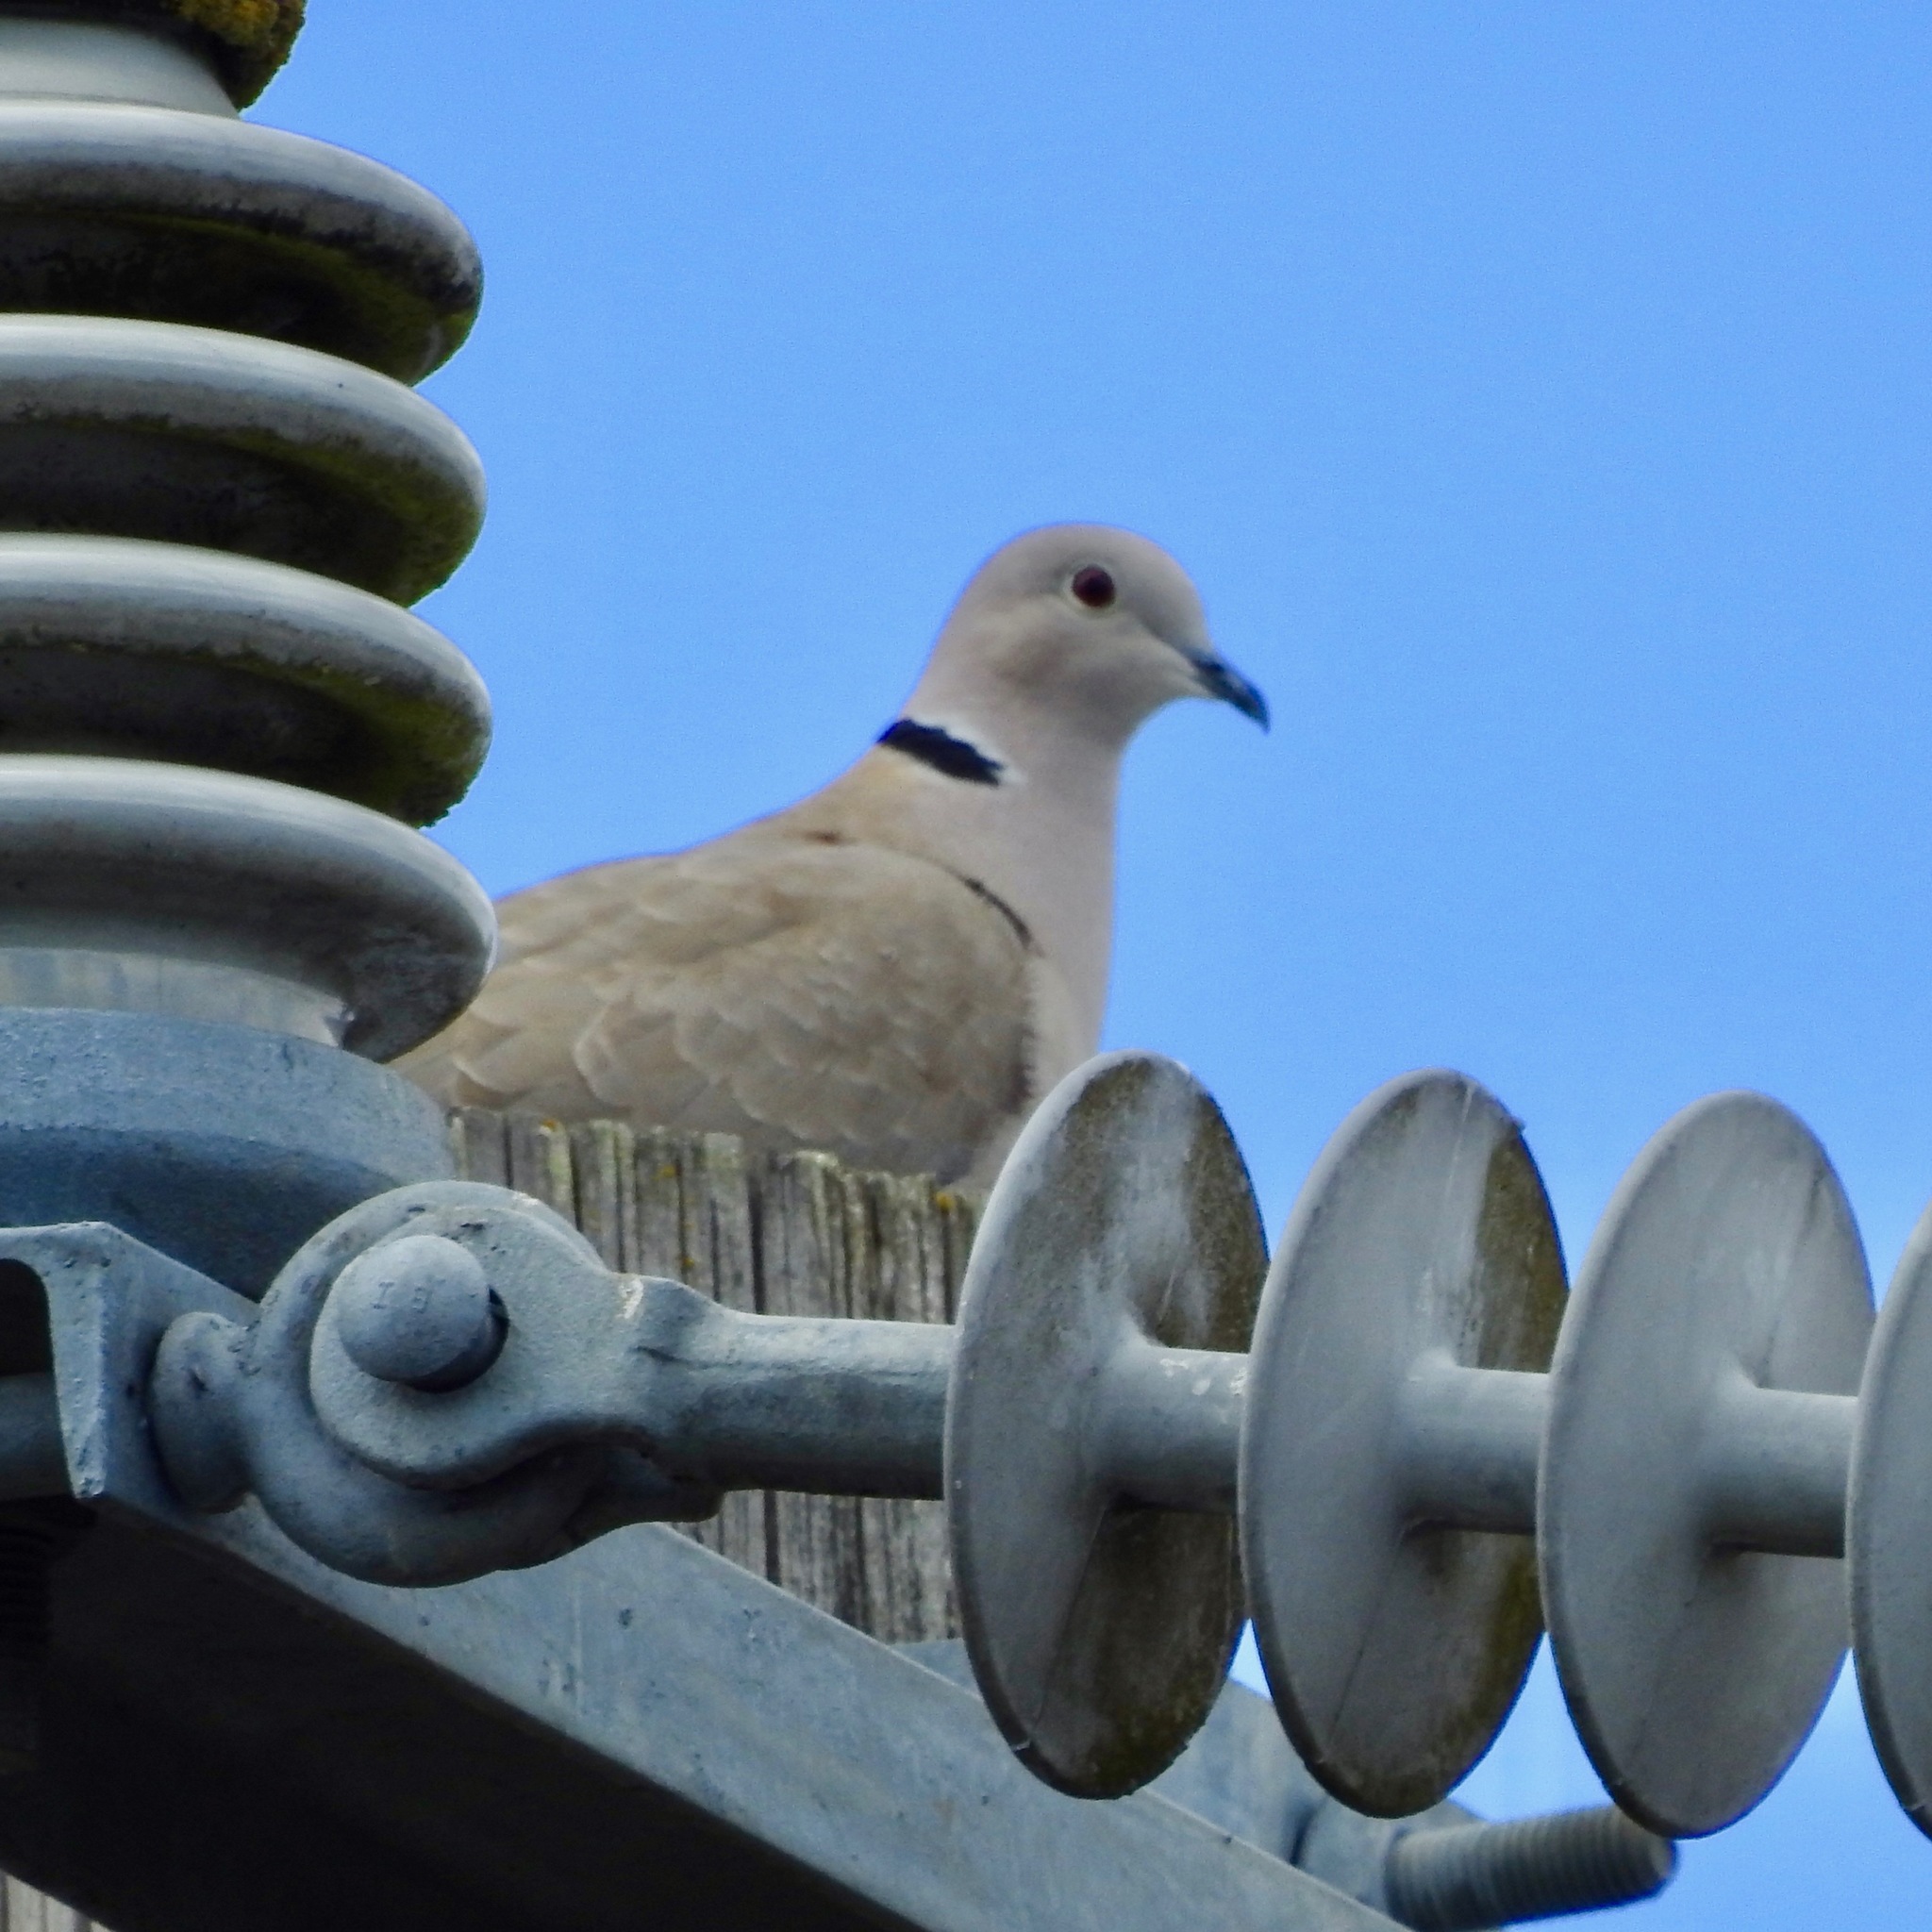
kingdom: Animalia
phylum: Chordata
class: Aves
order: Columbiformes
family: Columbidae
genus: Streptopelia
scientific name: Streptopelia decaocto
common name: Eurasian collared dove
